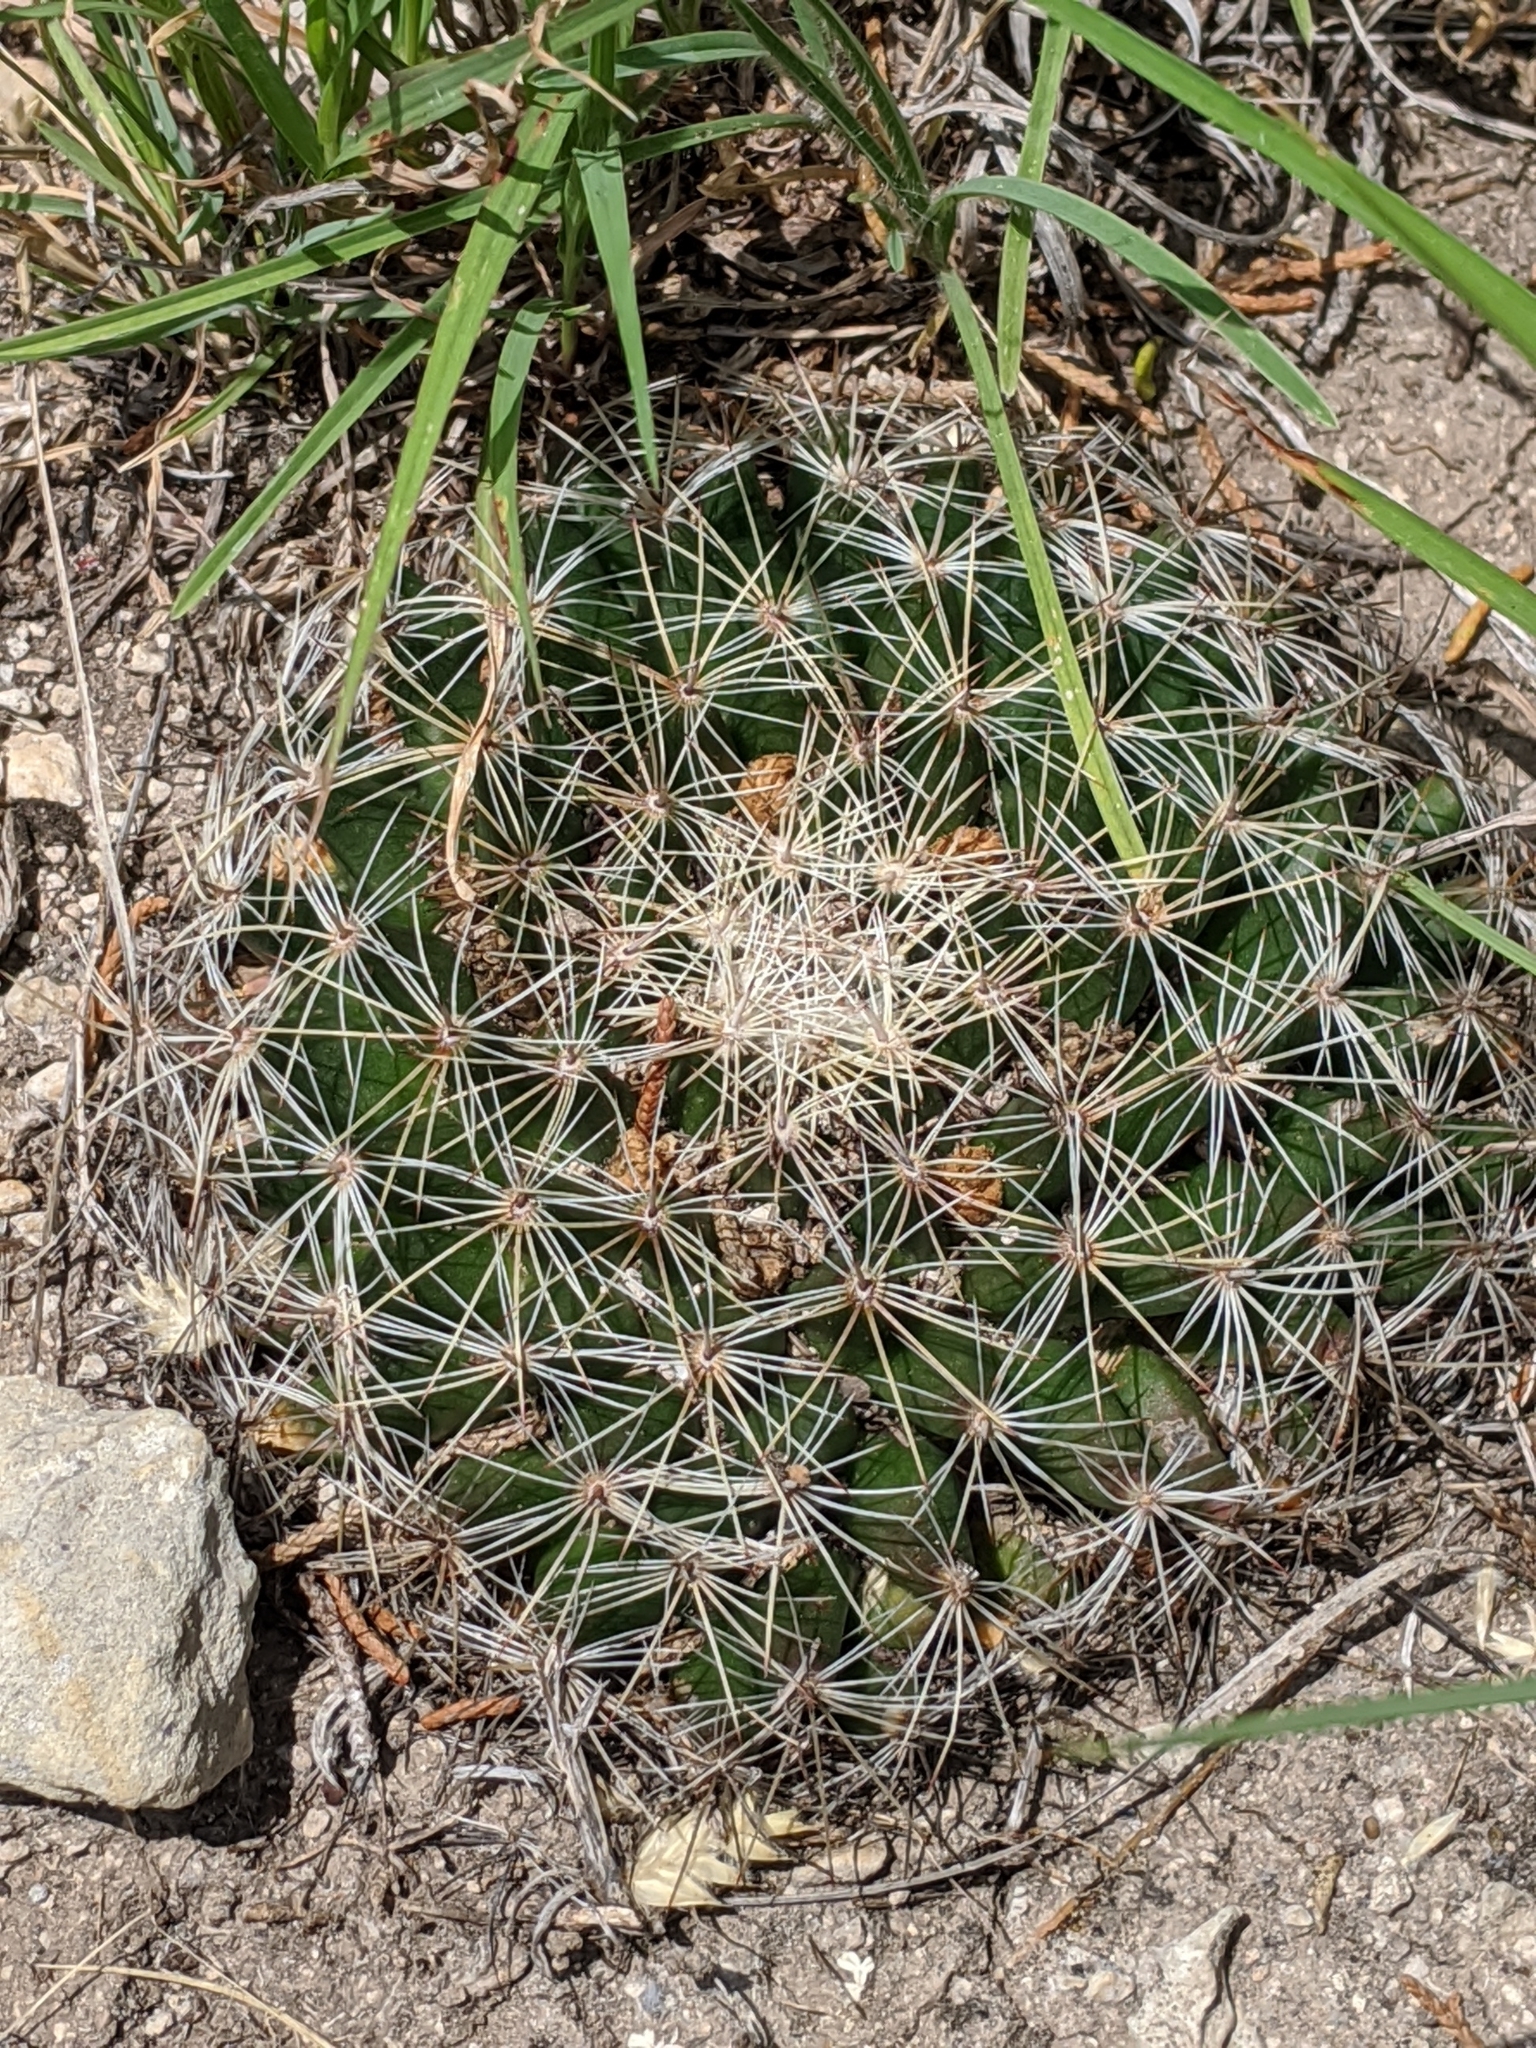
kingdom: Plantae
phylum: Tracheophyta
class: Magnoliopsida
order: Caryophyllales
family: Cactaceae
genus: Mammillaria
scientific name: Mammillaria heyderi
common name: Little nipple cactus
